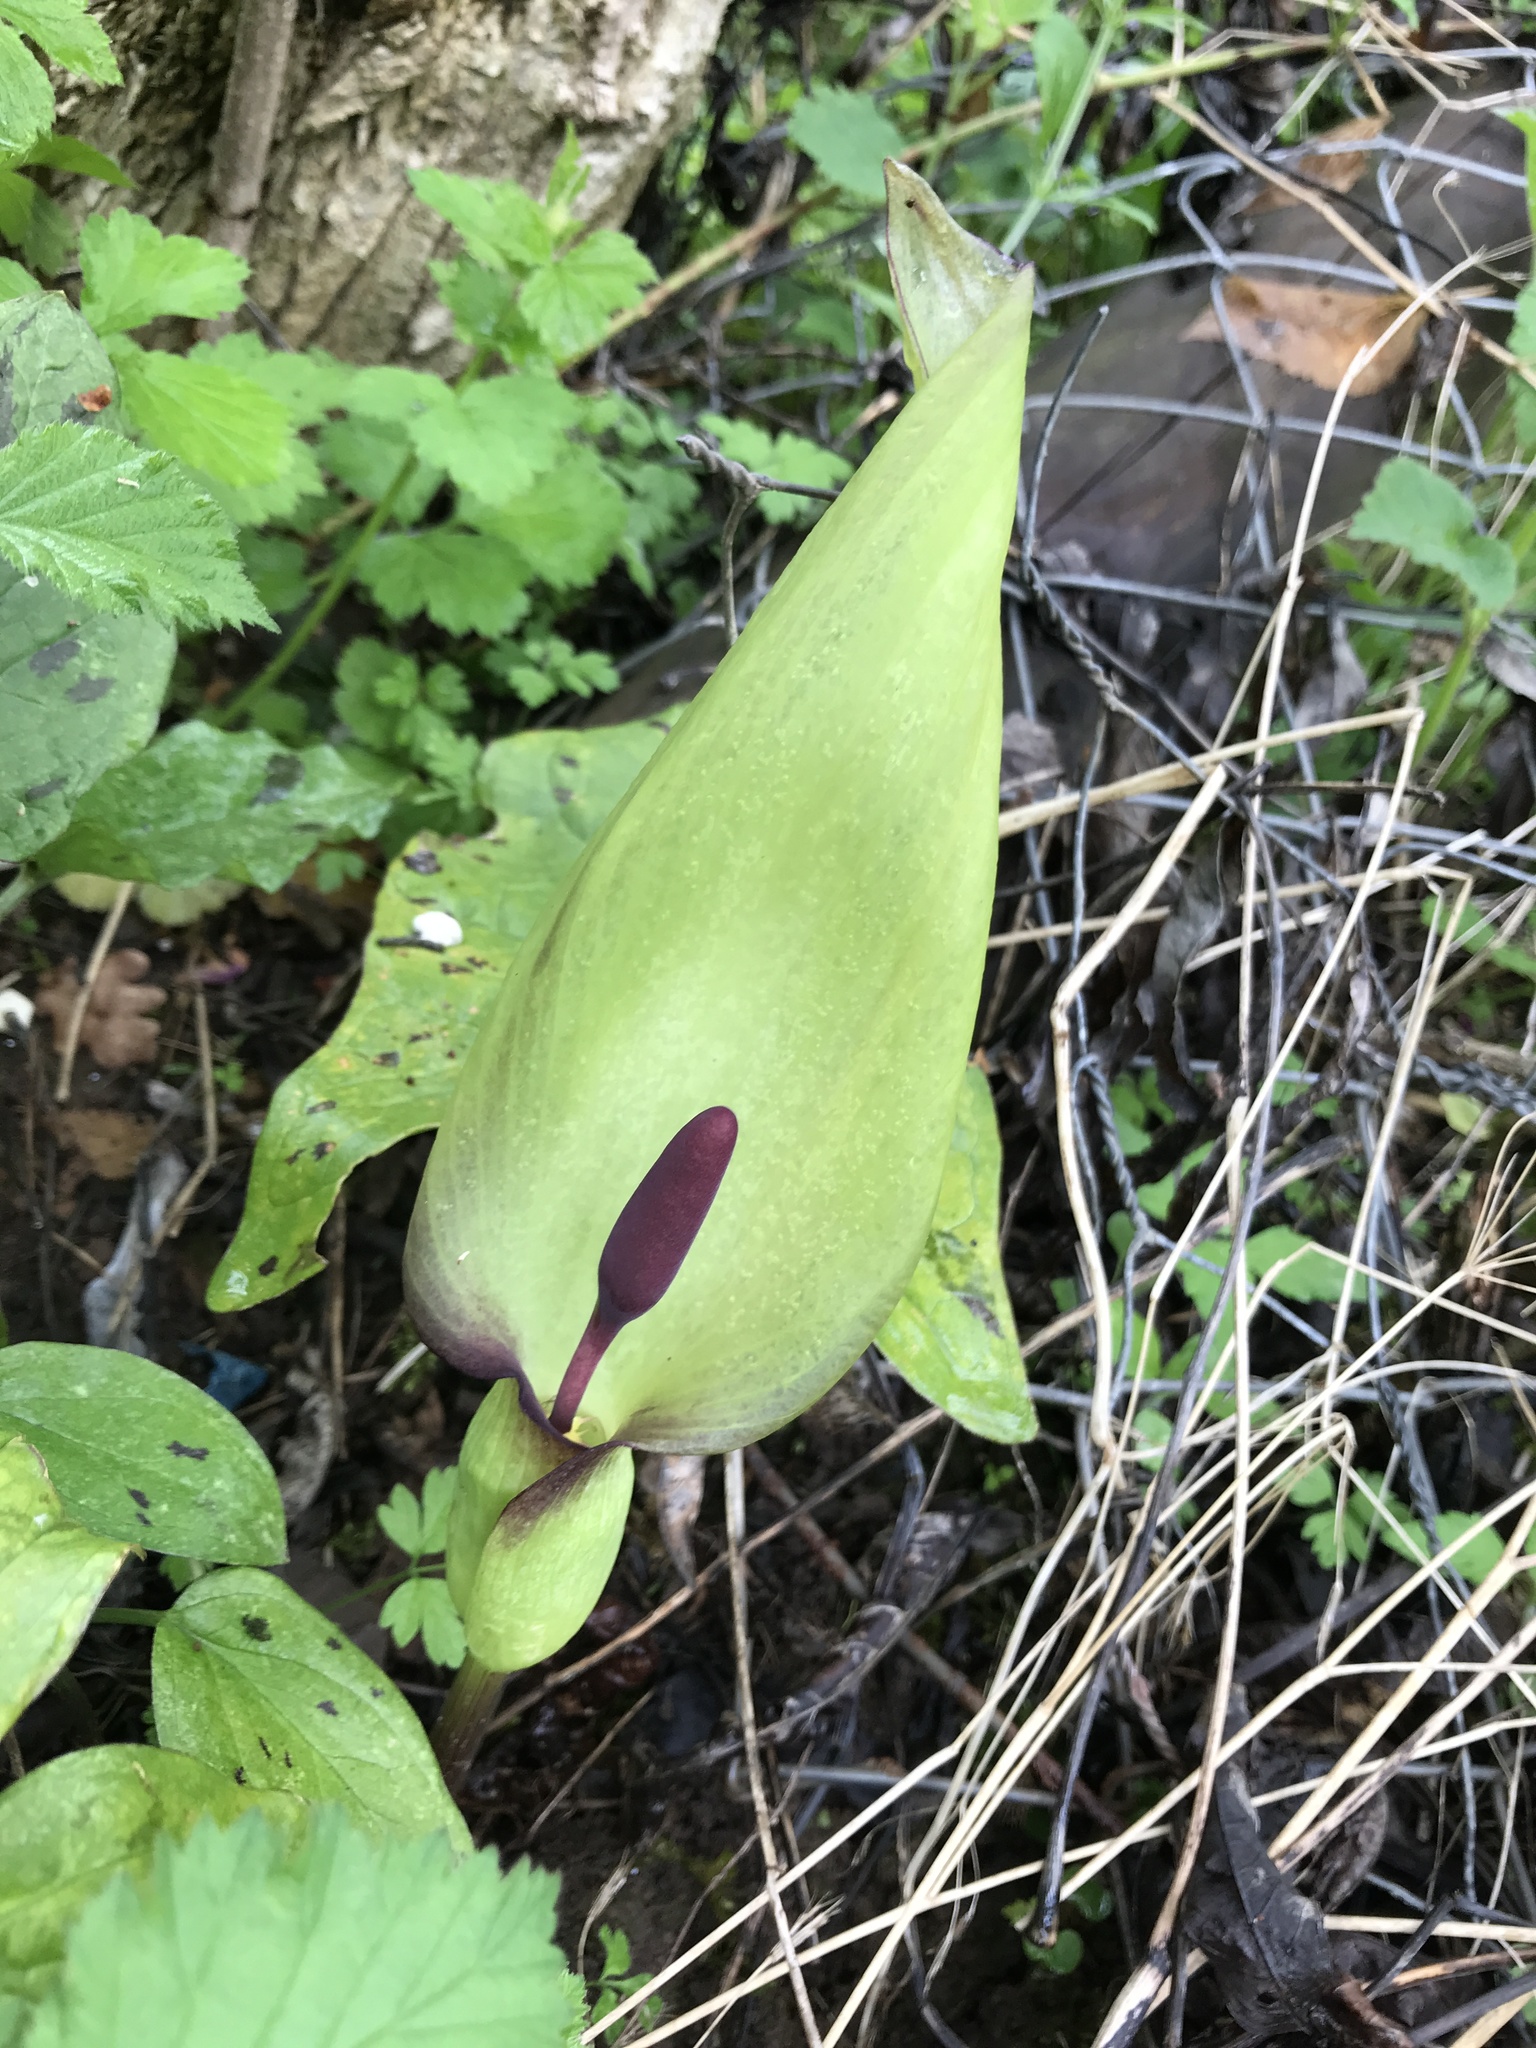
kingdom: Plantae
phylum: Tracheophyta
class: Liliopsida
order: Alismatales
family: Araceae
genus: Arum
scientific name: Arum maculatum
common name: Lords-and-ladies
